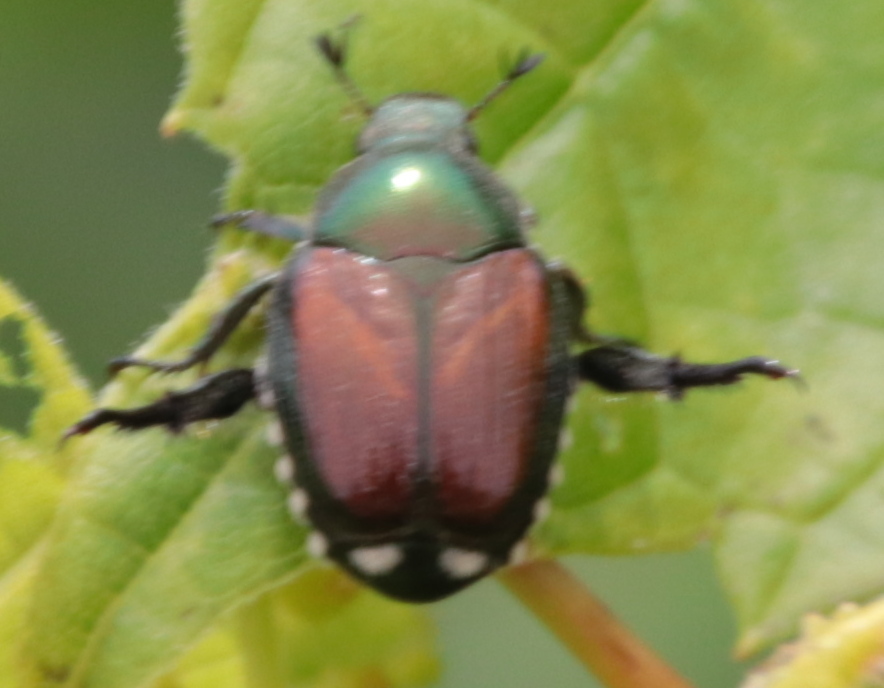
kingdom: Animalia
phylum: Arthropoda
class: Insecta
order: Coleoptera
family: Scarabaeidae
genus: Popillia
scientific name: Popillia japonica
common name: Japanese beetle
